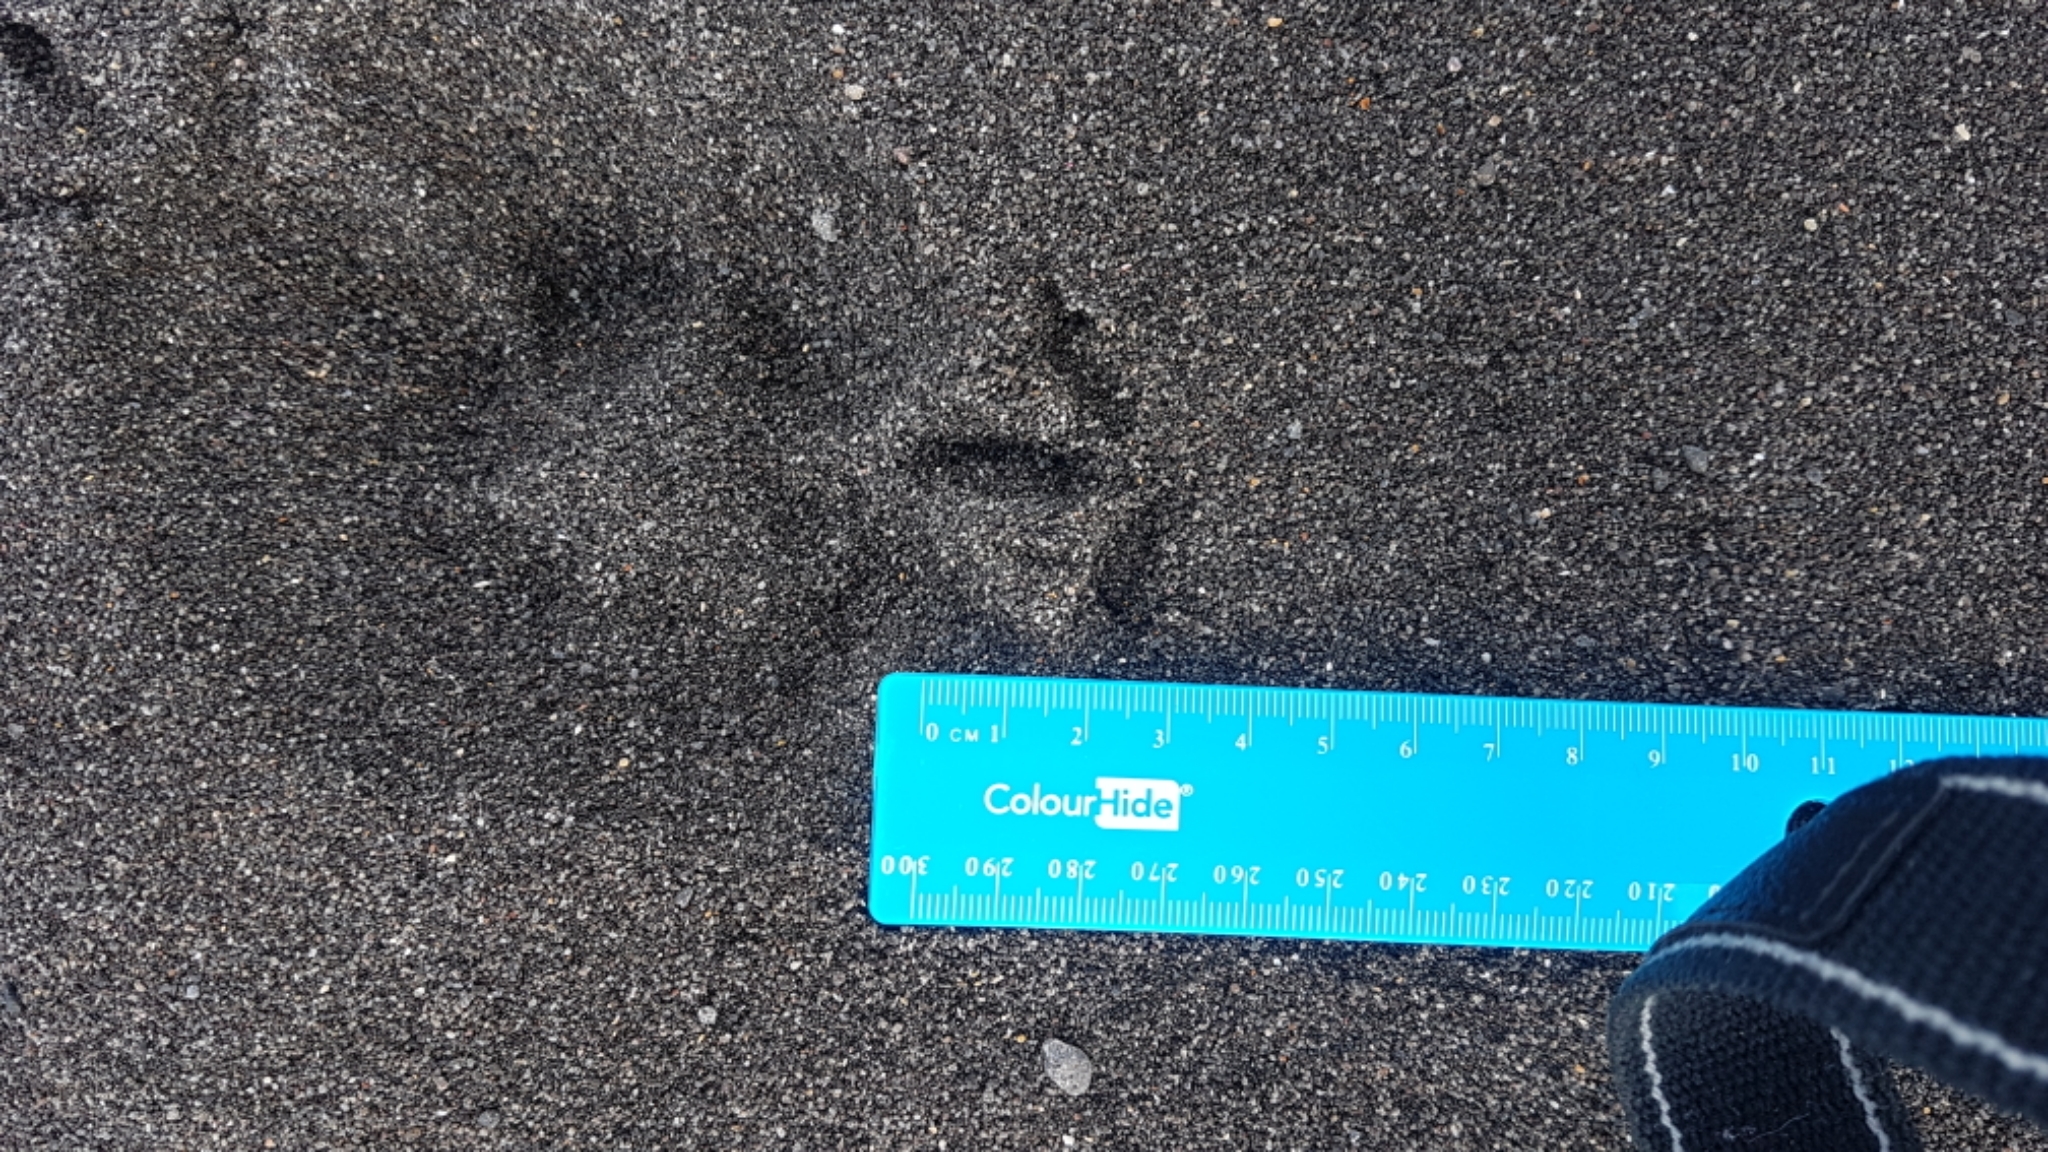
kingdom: Animalia
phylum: Chordata
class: Aves
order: Charadriiformes
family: Charadriidae
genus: Anarhynchus
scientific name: Anarhynchus
